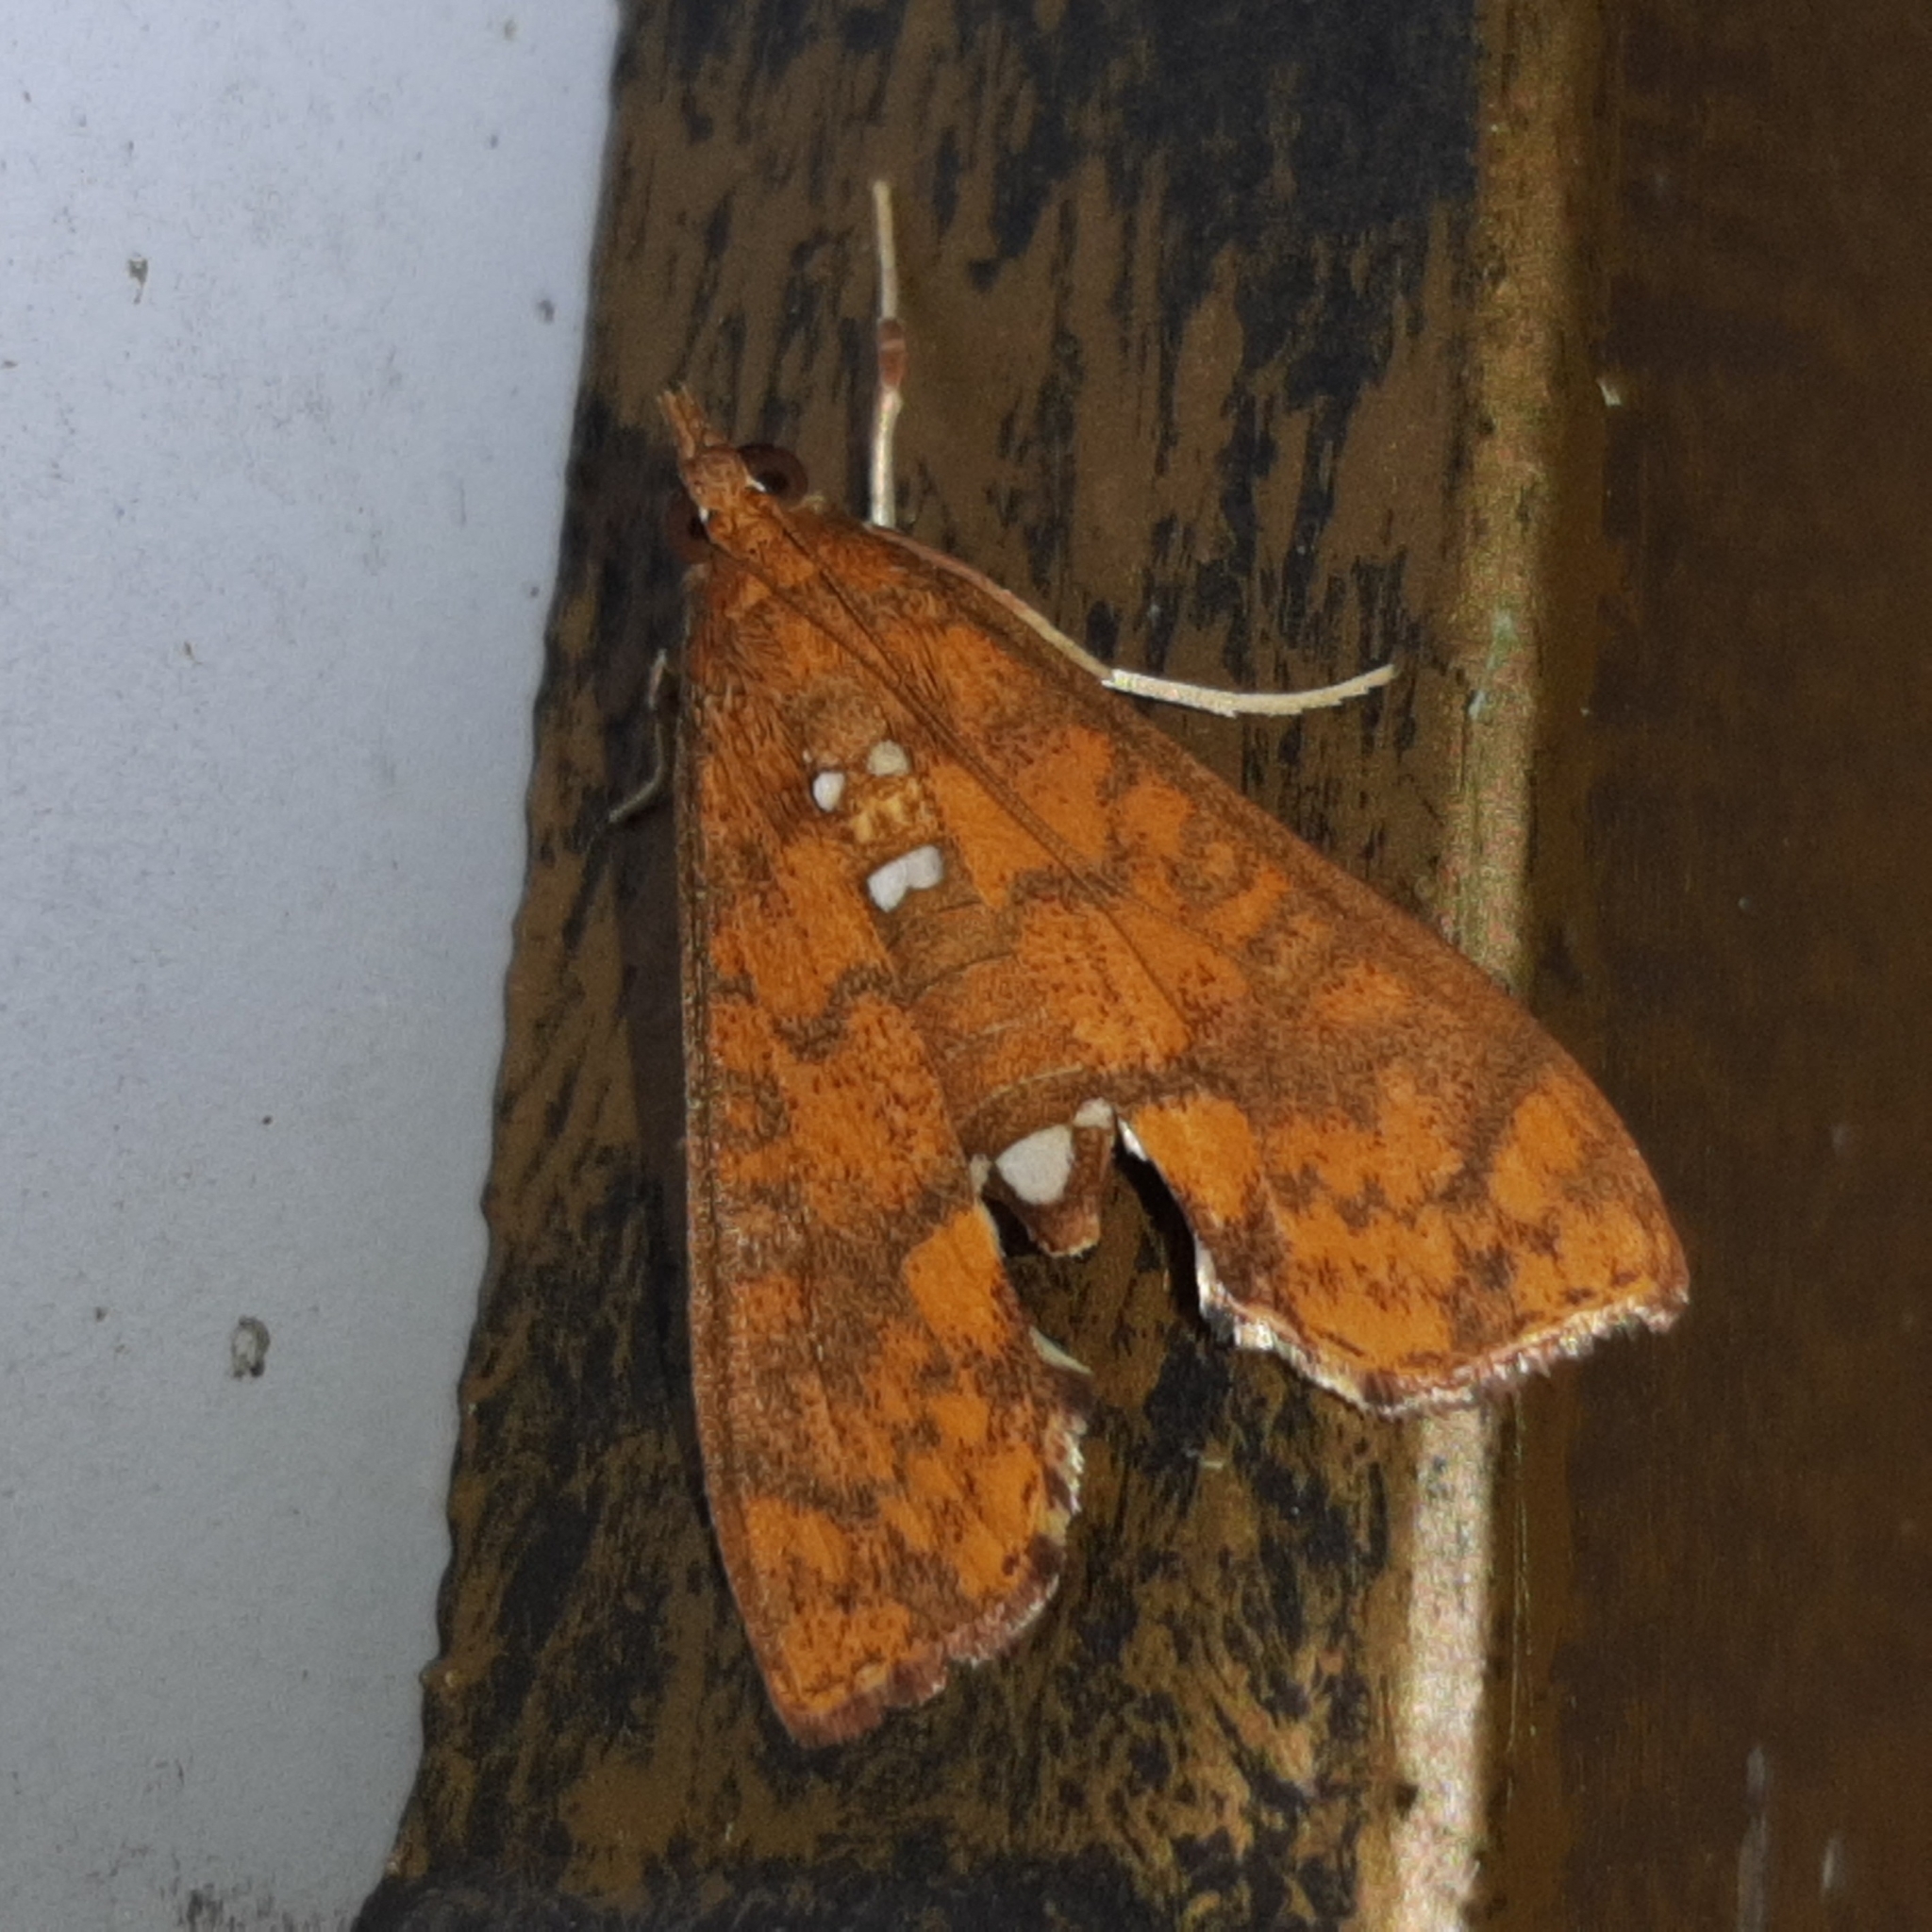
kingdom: Animalia
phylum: Arthropoda
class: Insecta
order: Lepidoptera
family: Crambidae
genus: Liopasia
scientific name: Liopasia ochracealis
